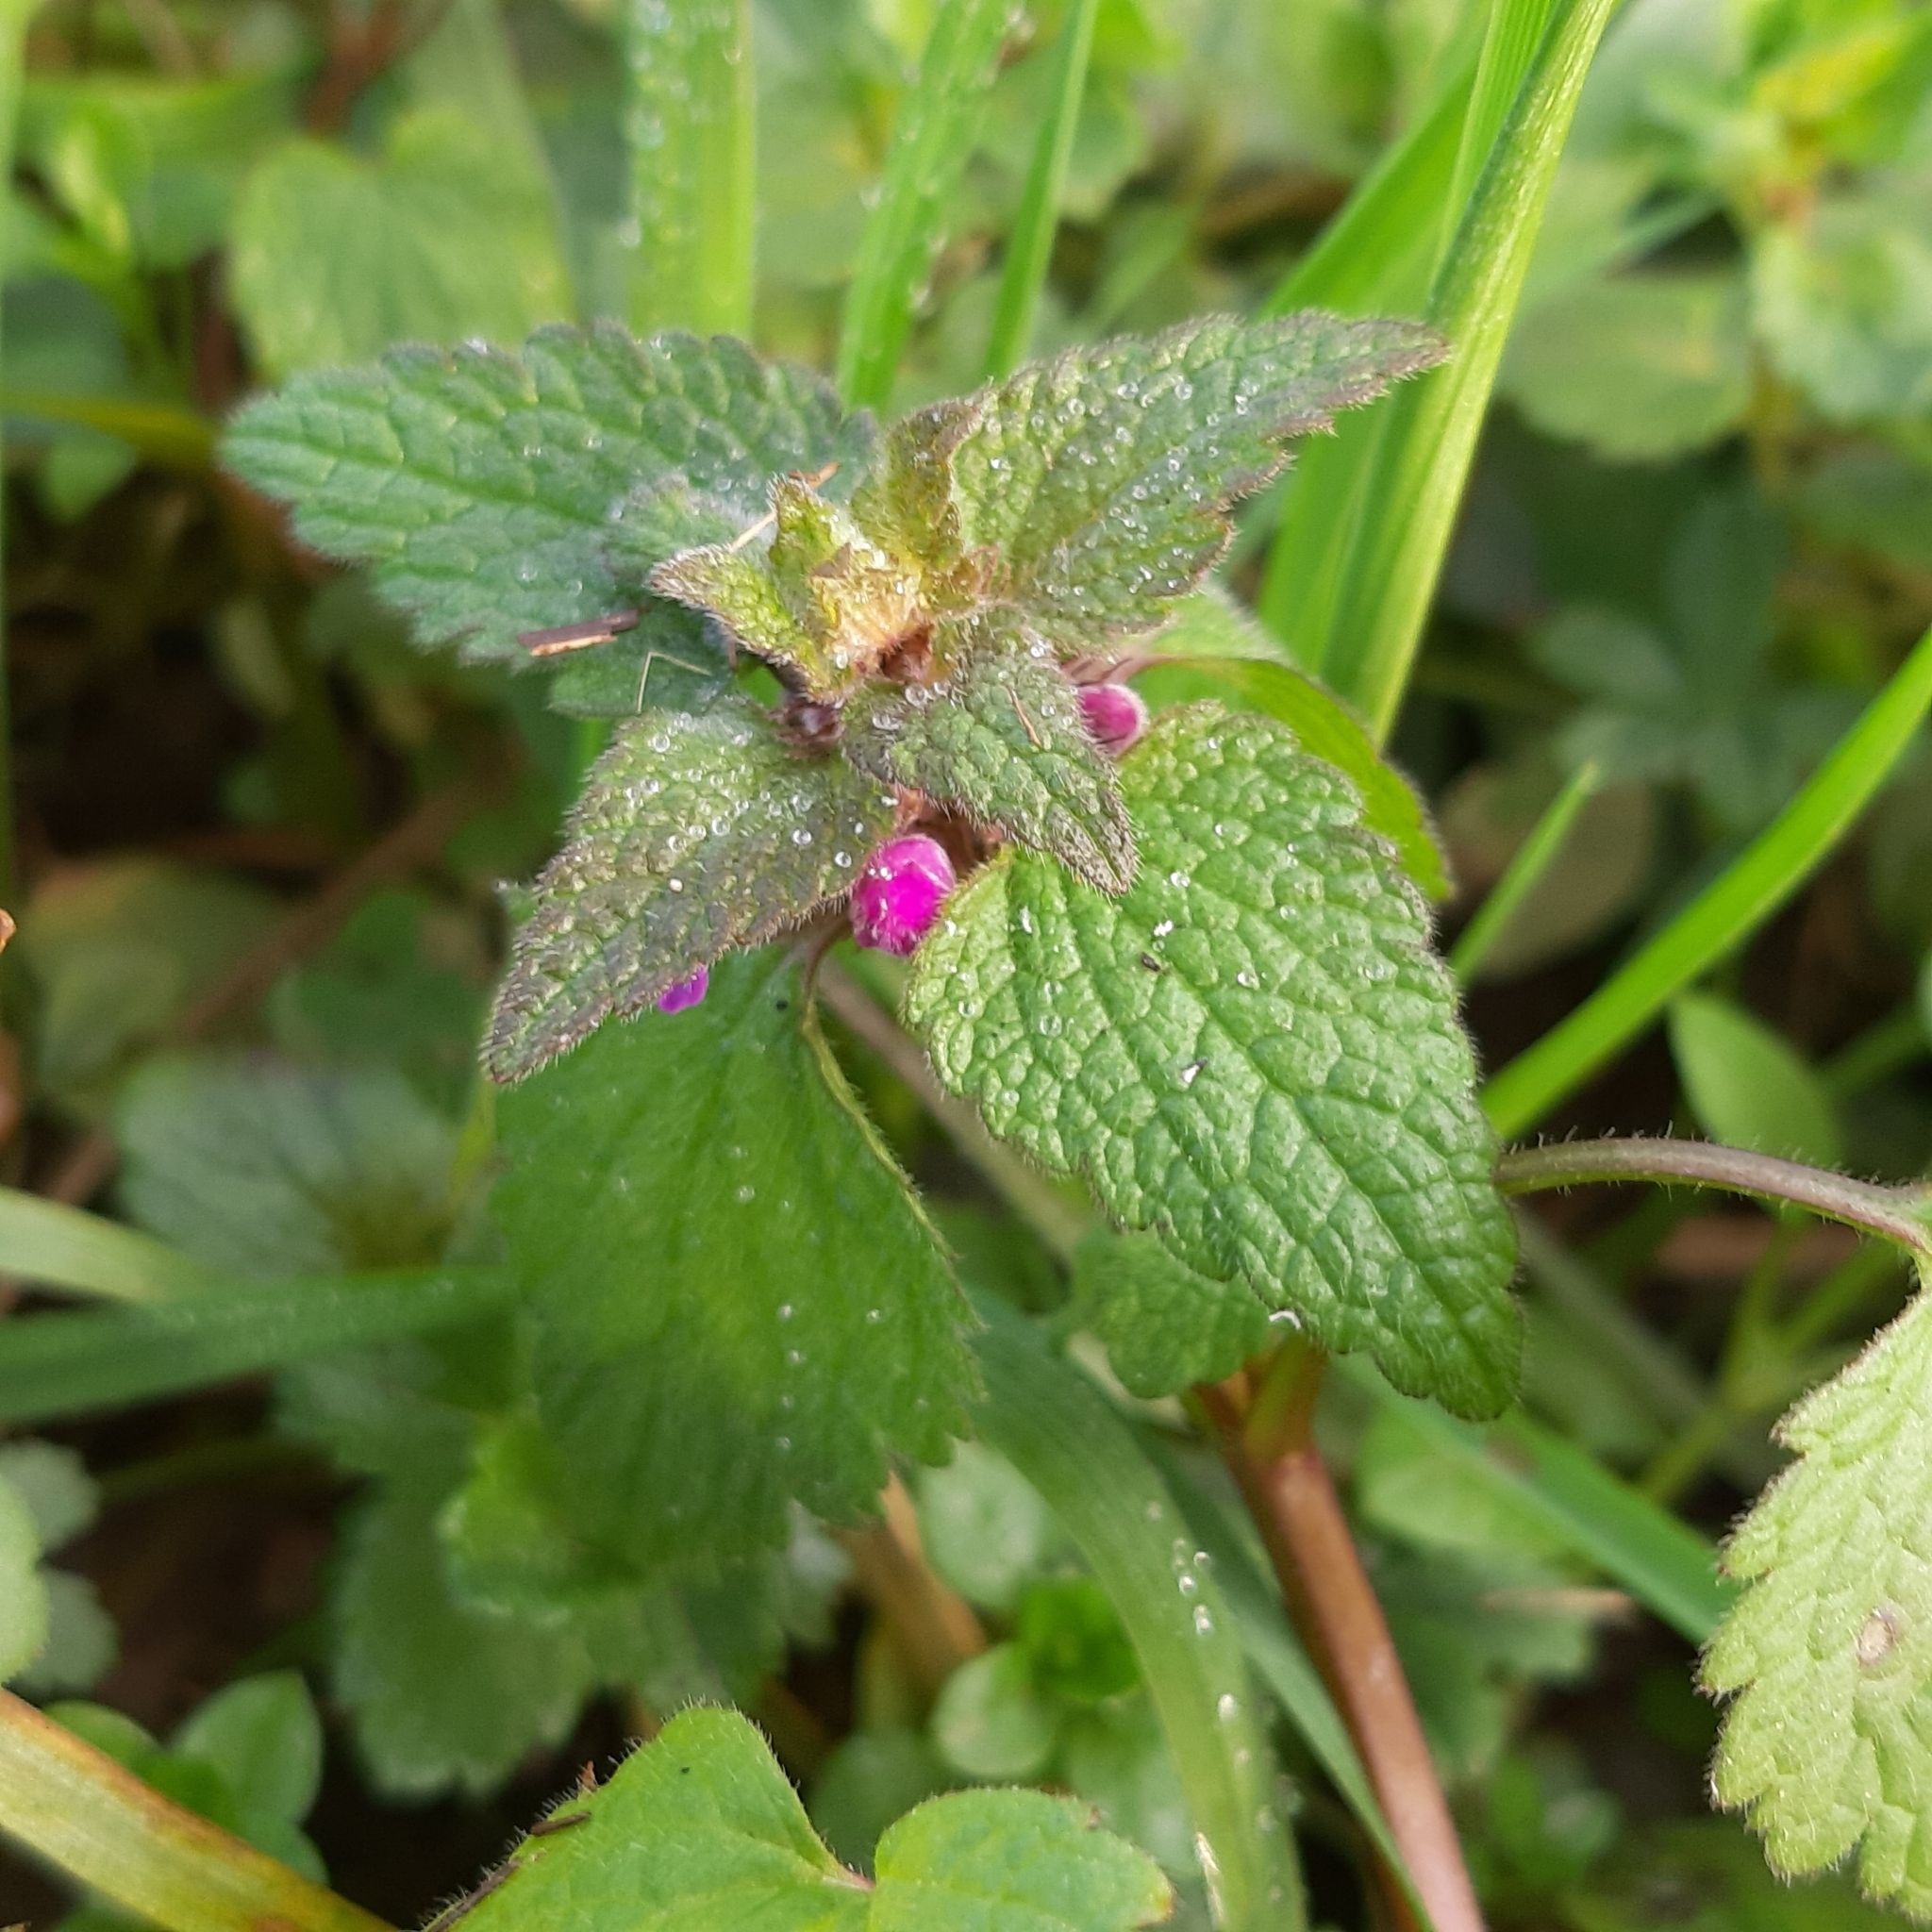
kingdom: Plantae
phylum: Tracheophyta
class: Magnoliopsida
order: Lamiales
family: Lamiaceae
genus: Lamium
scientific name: Lamium purpureum
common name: Red dead-nettle
